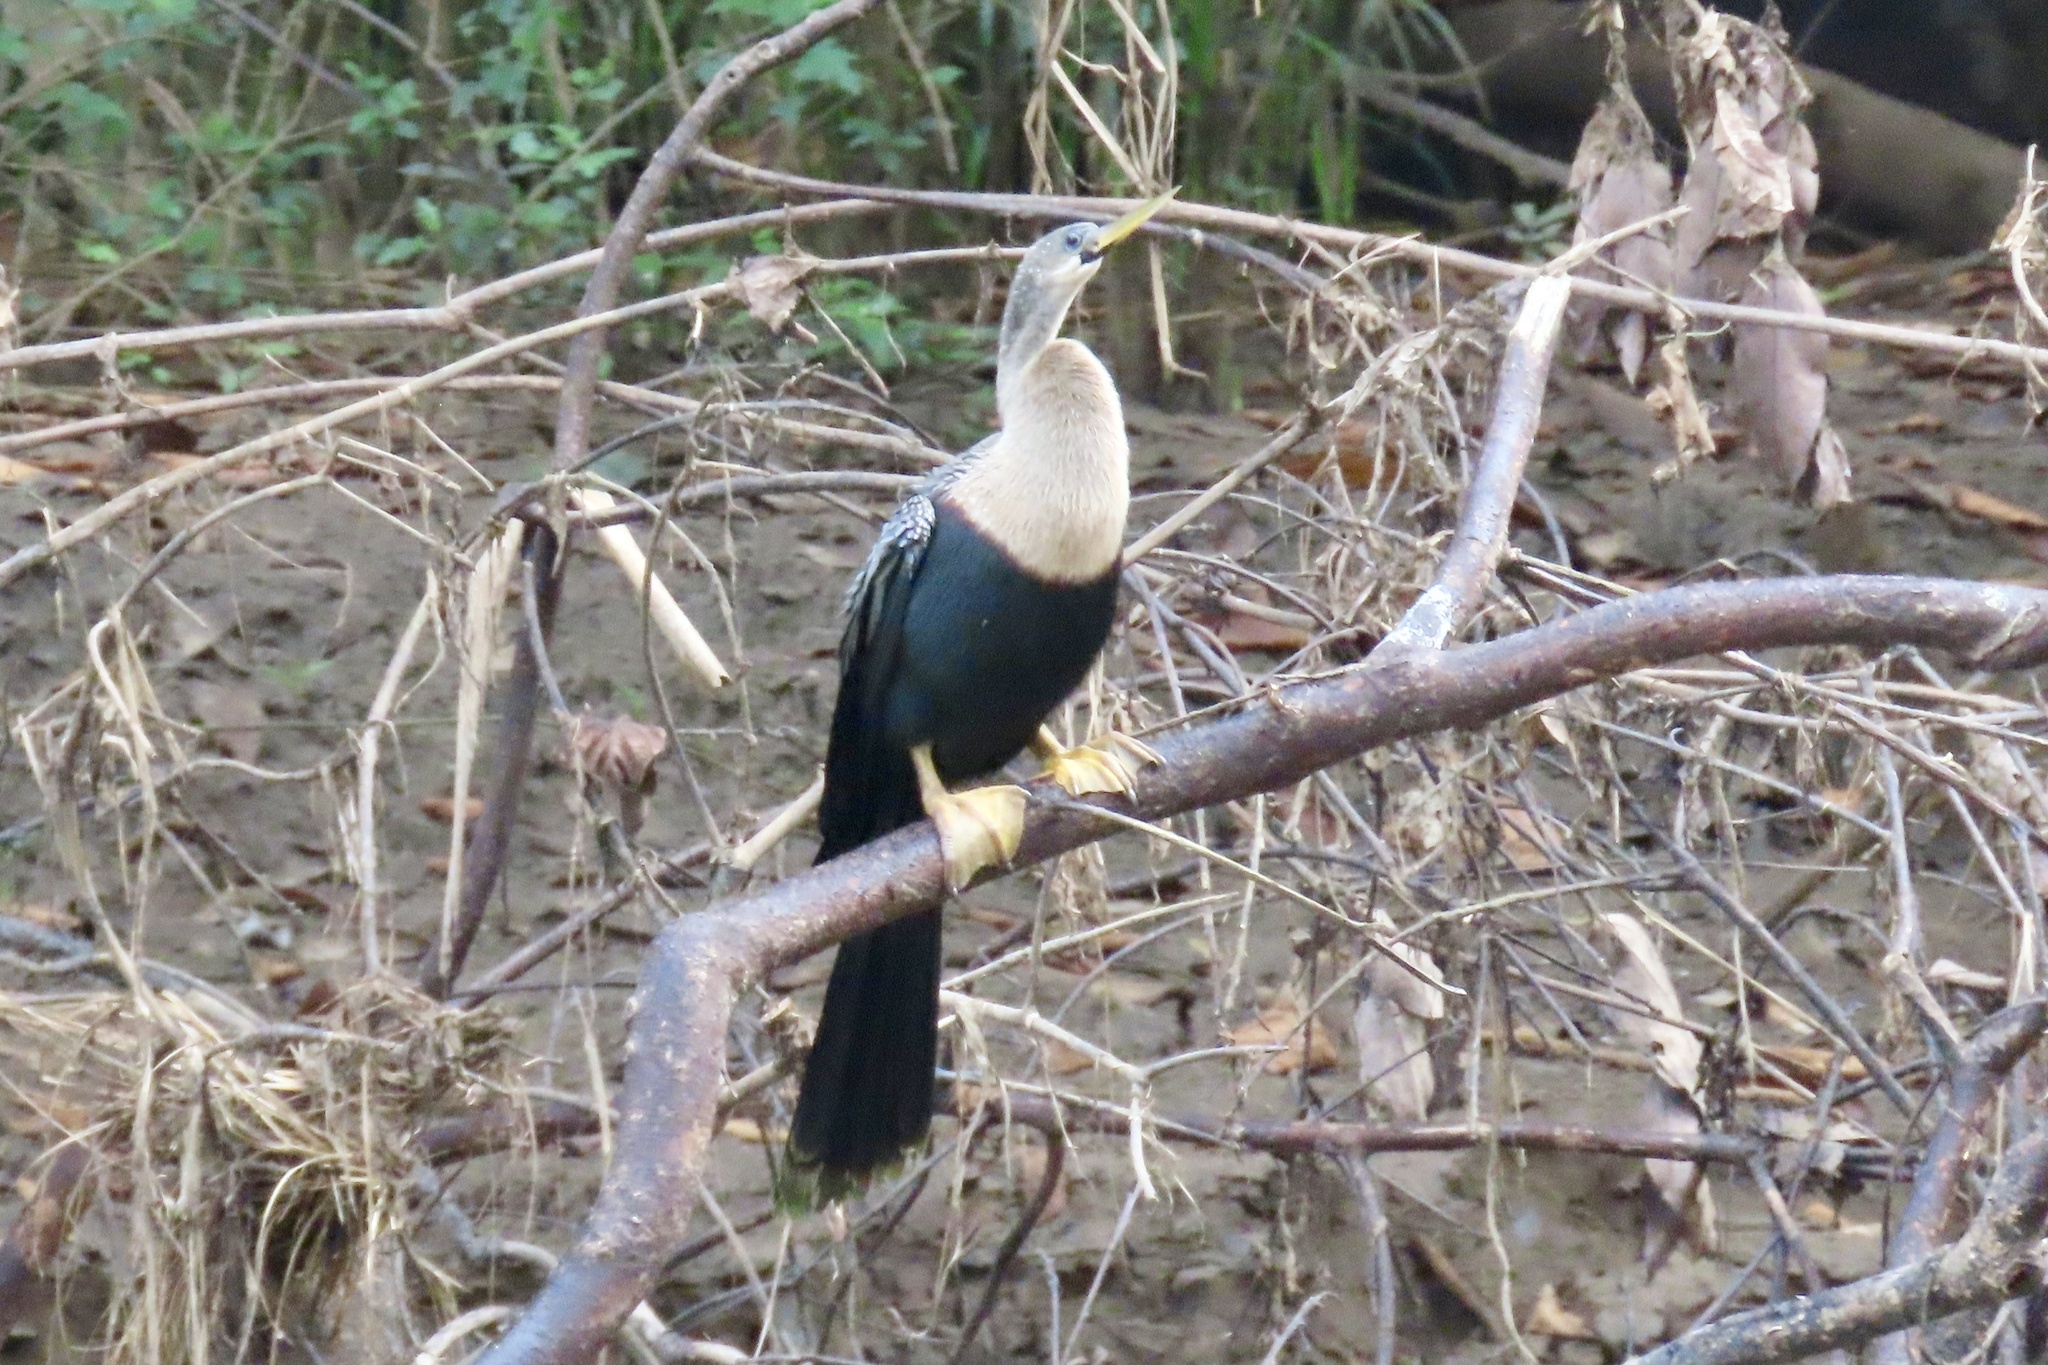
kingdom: Animalia
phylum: Chordata
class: Aves
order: Suliformes
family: Anhingidae
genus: Anhinga
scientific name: Anhinga anhinga
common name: Anhinga
